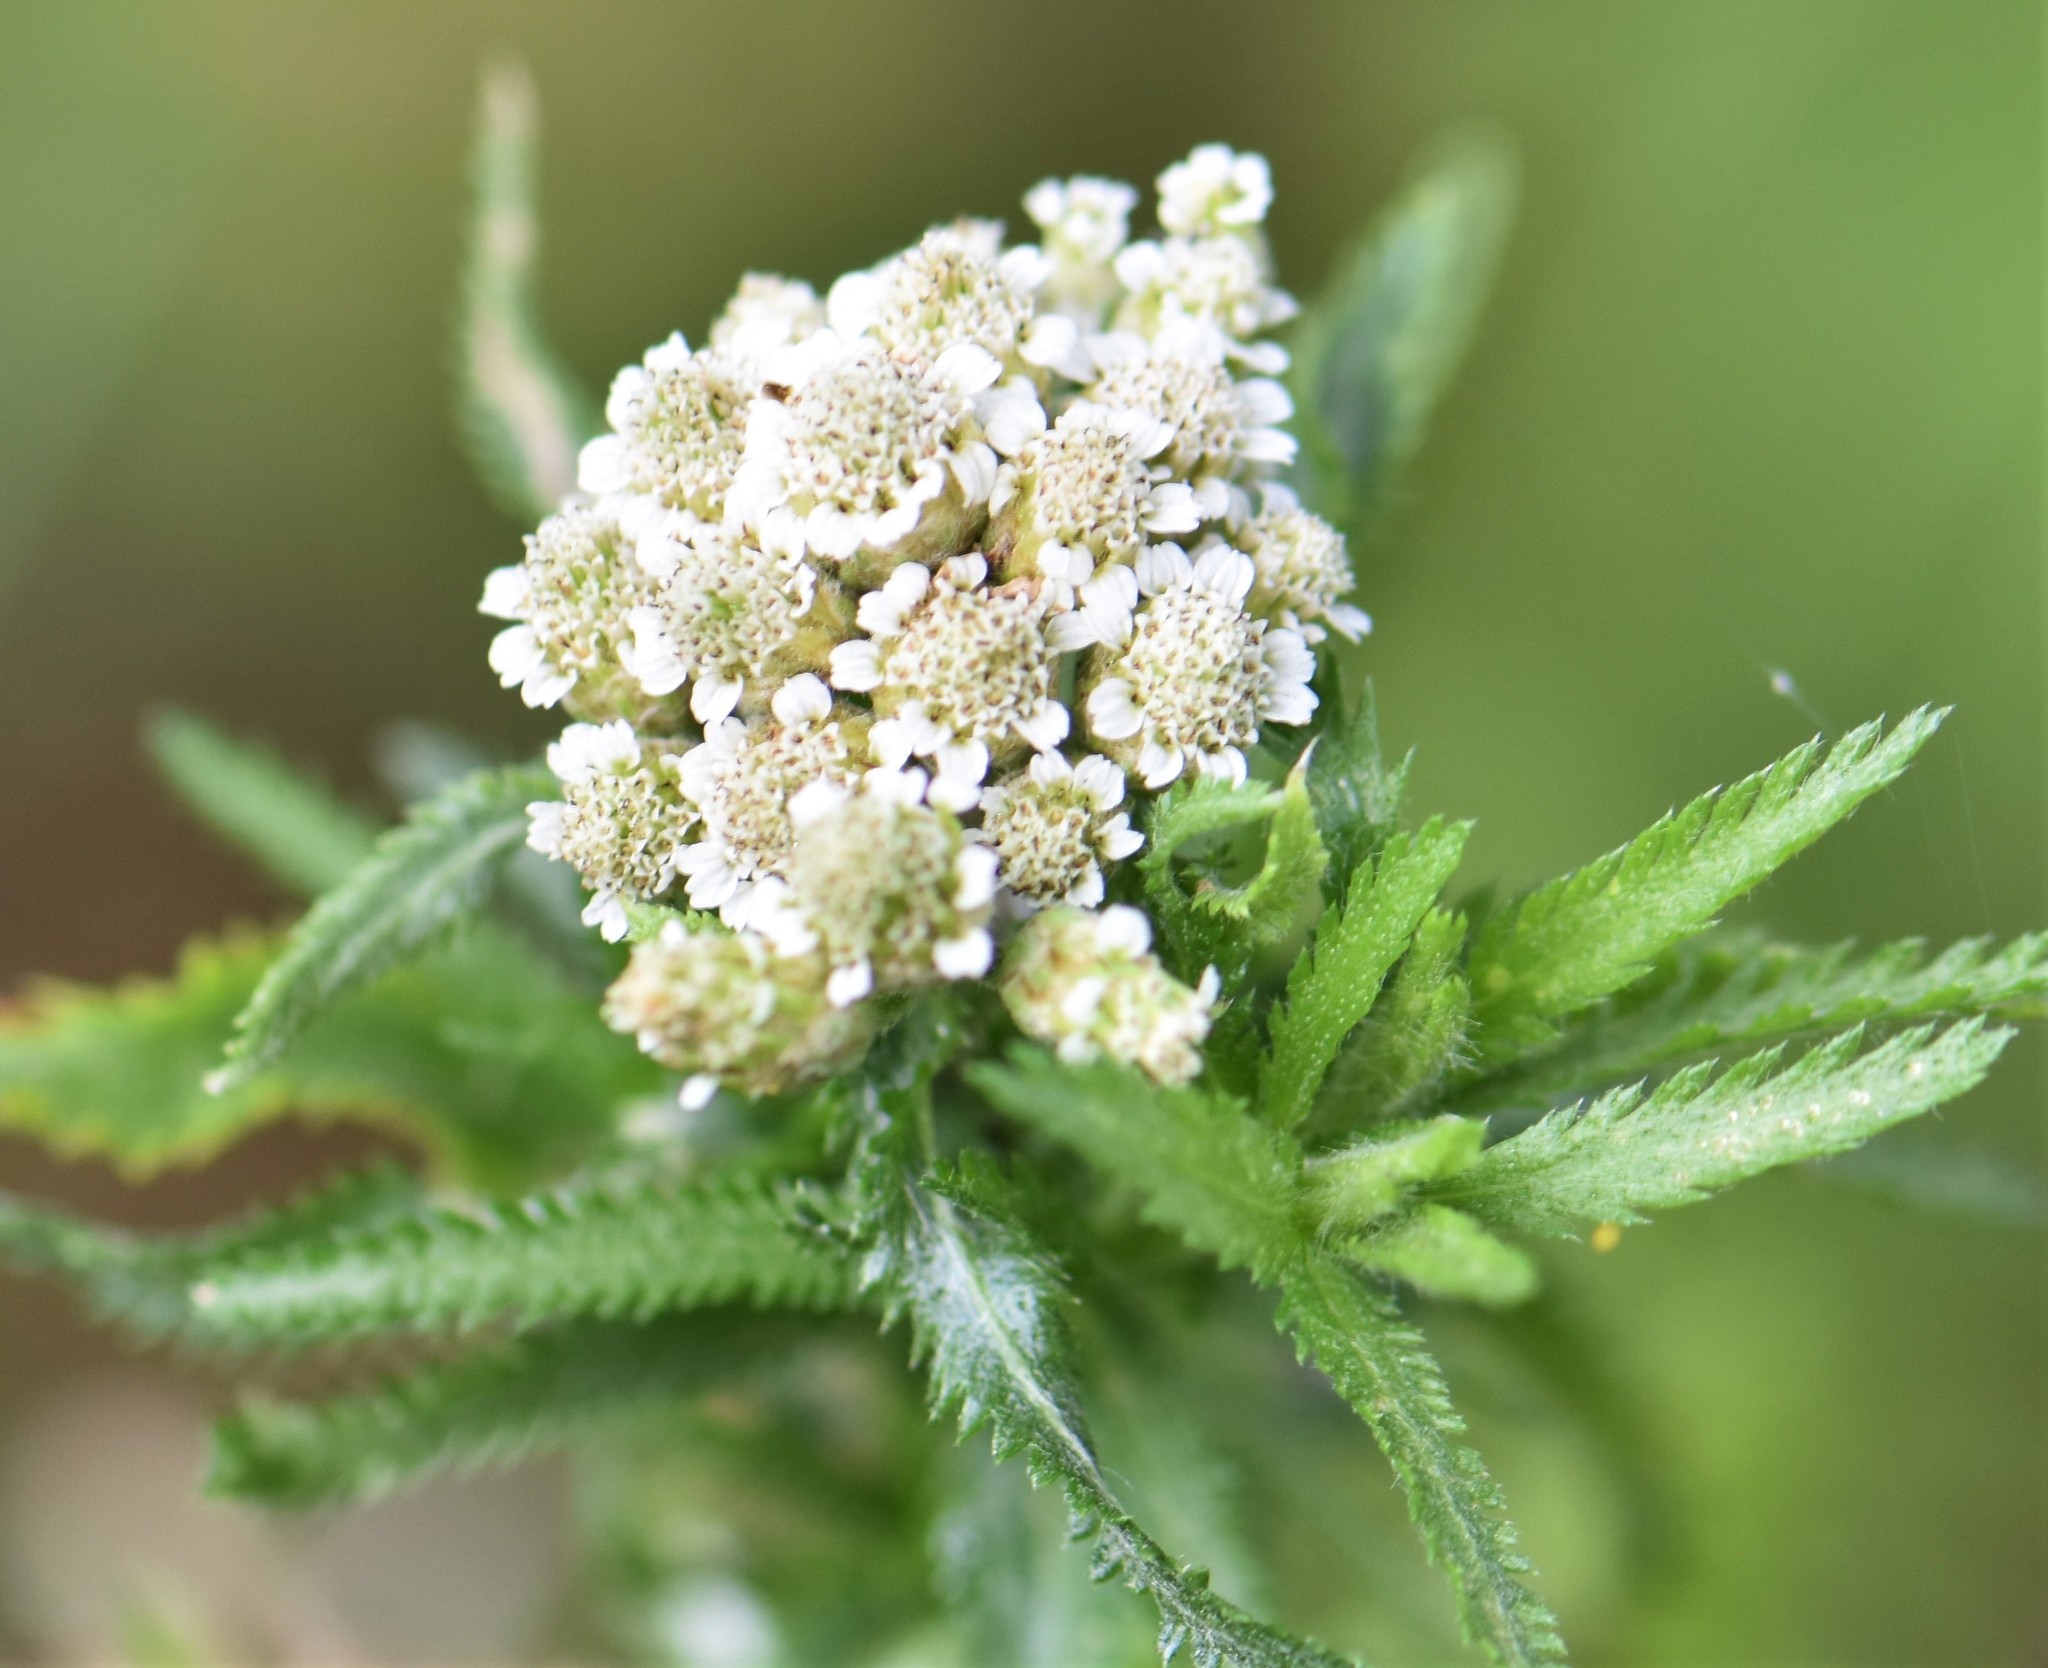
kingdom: Plantae
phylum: Tracheophyta
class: Magnoliopsida
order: Asterales
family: Asteraceae
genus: Achillea
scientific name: Achillea alpina
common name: Siberian yarrow
